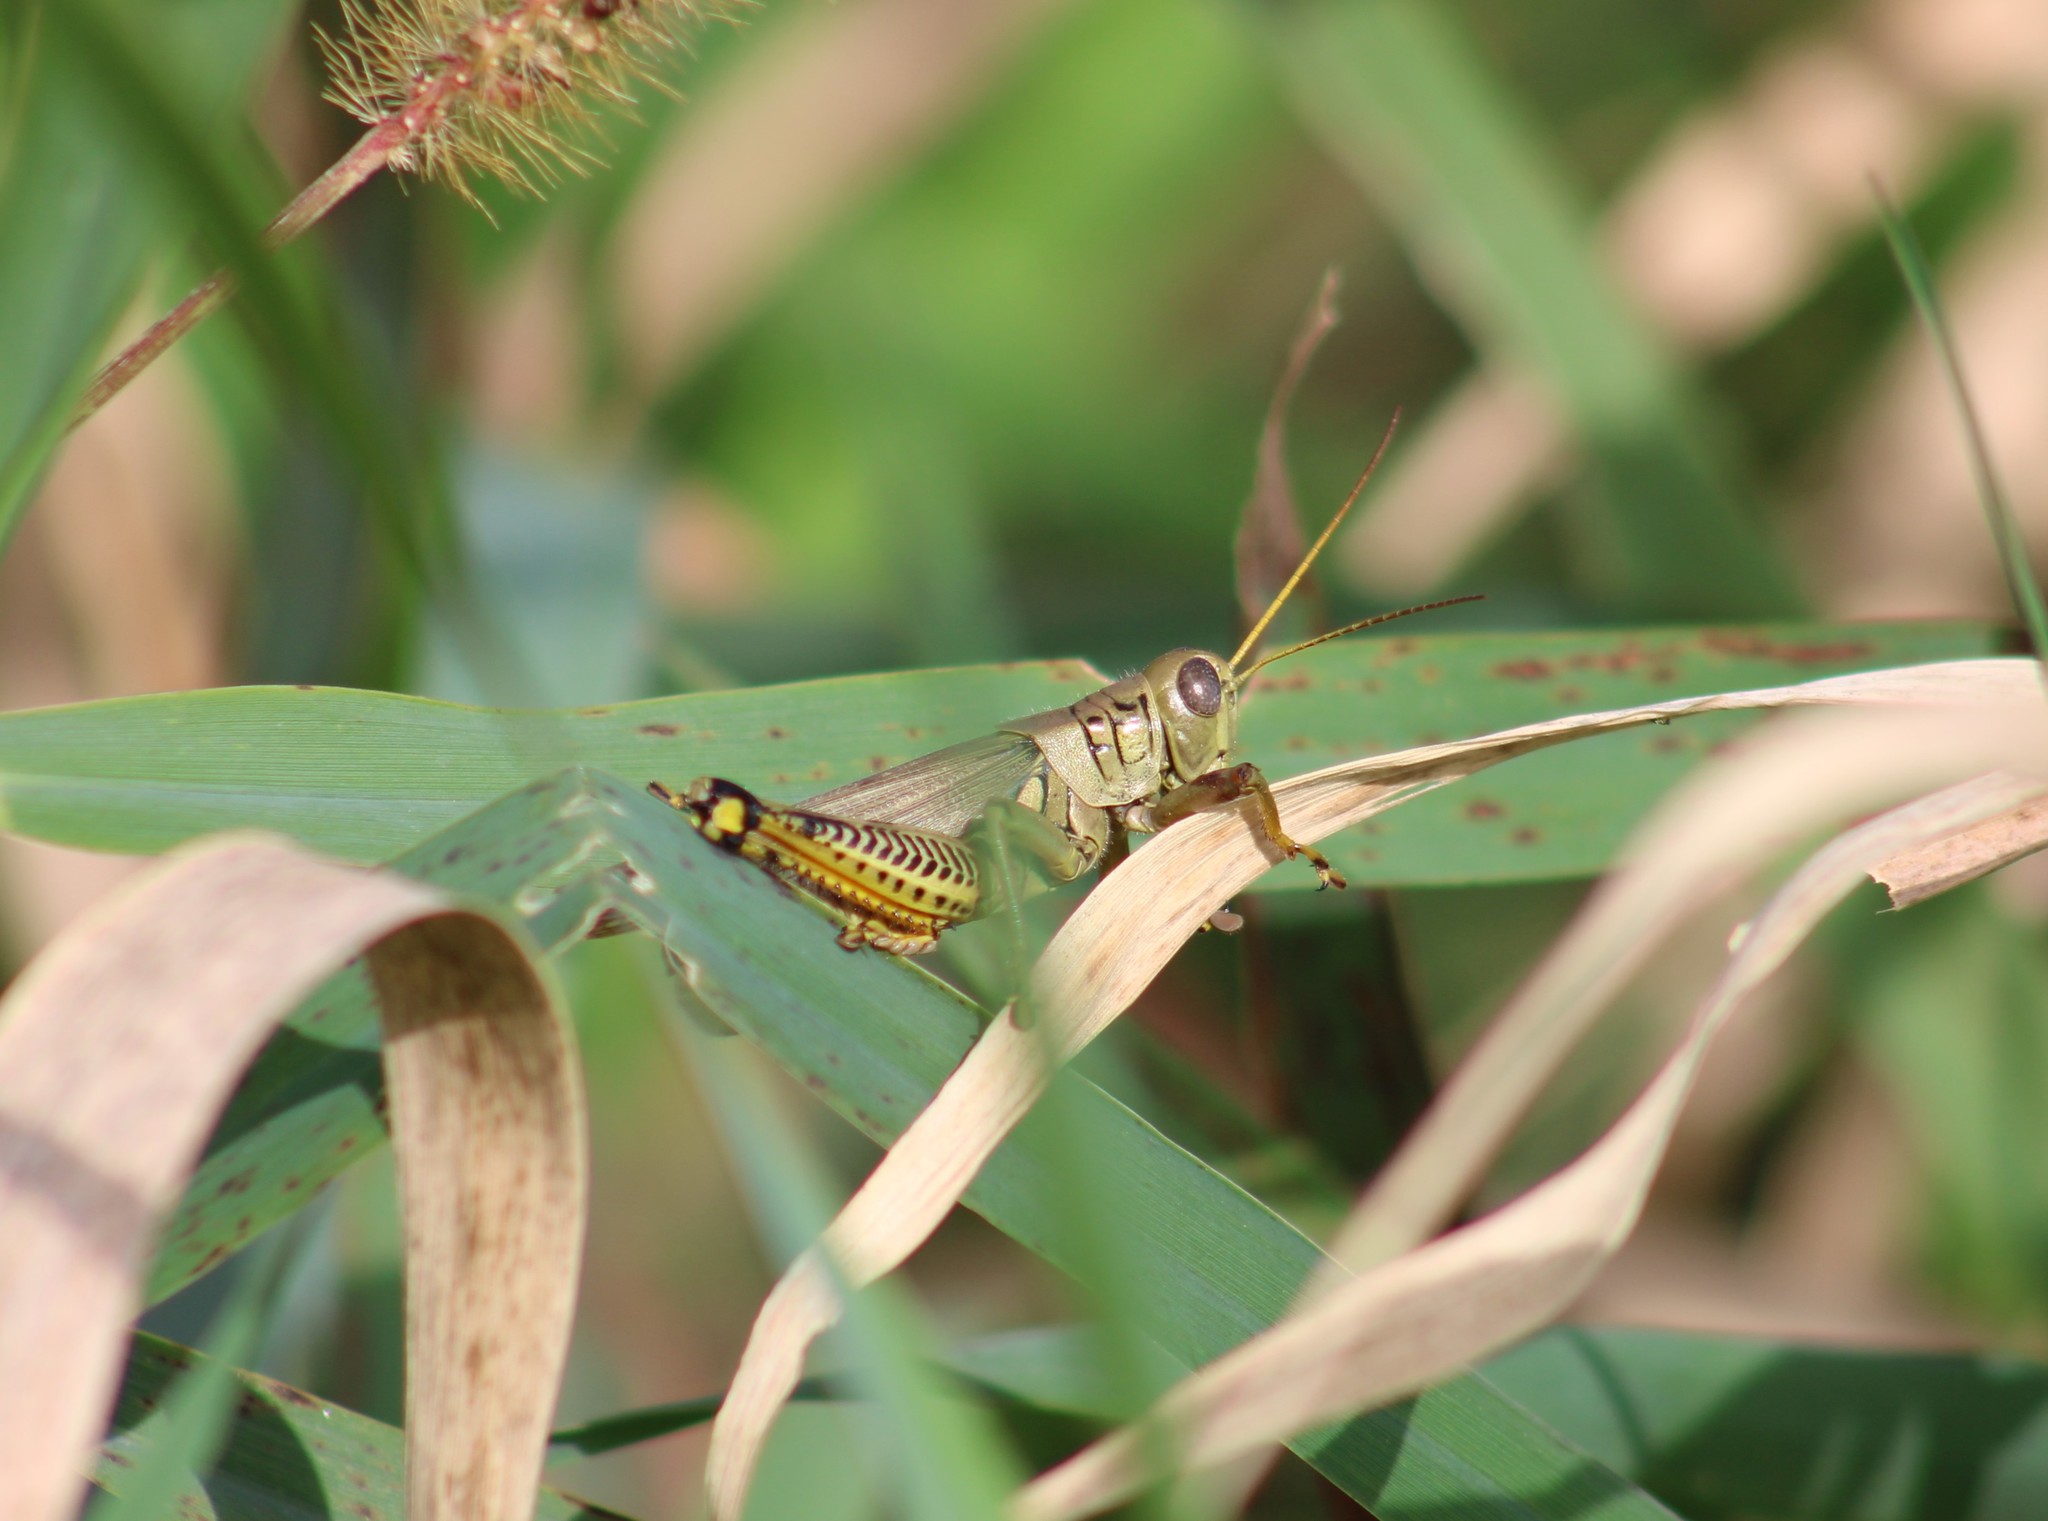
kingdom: Animalia
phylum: Arthropoda
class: Insecta
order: Orthoptera
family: Acrididae
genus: Melanoplus
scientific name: Melanoplus differentialis
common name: Differential grasshopper
